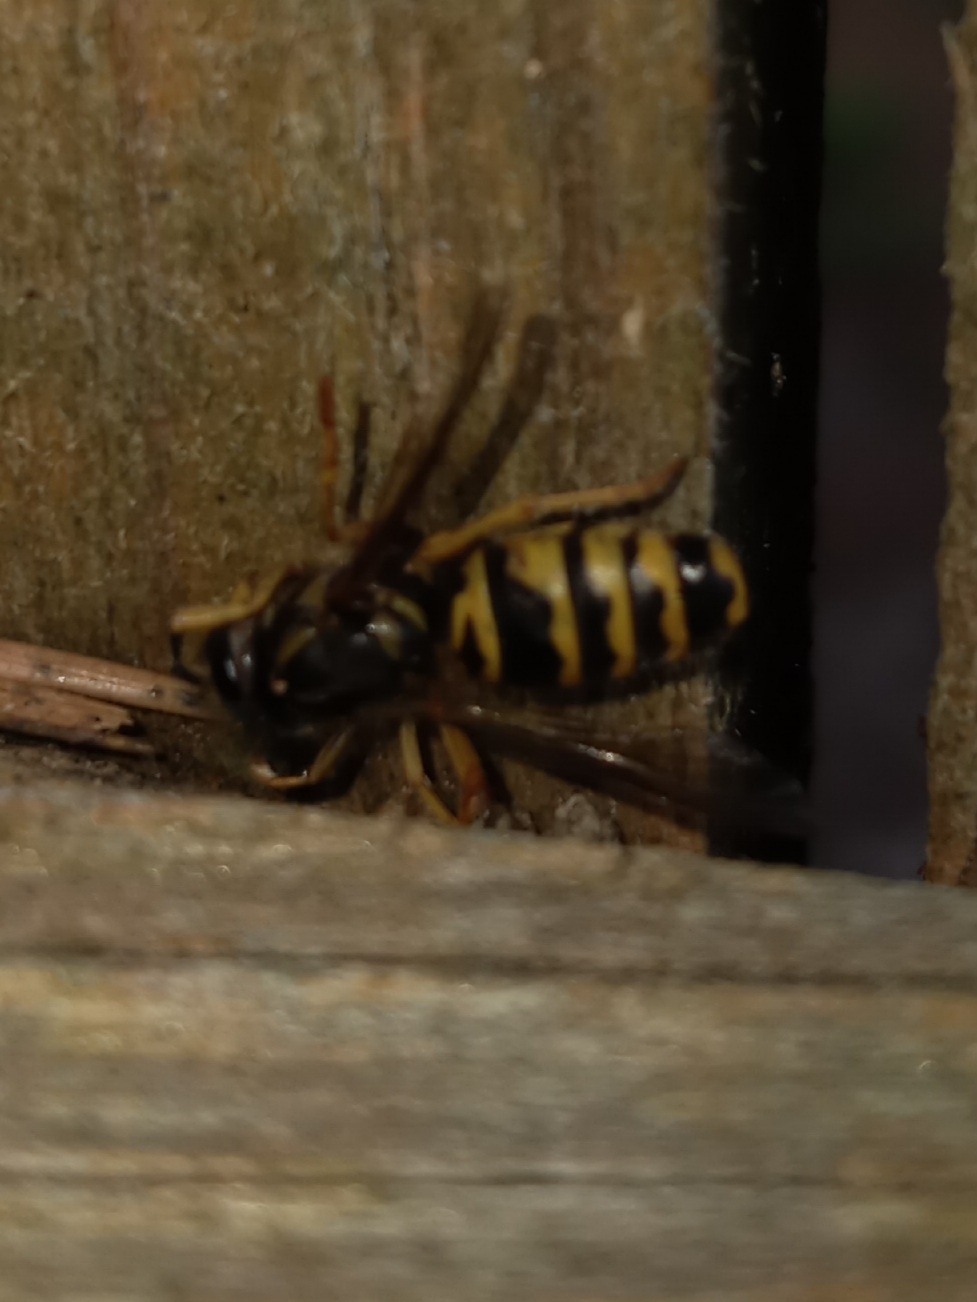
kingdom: Animalia
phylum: Arthropoda
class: Insecta
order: Hymenoptera
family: Vespidae
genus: Vespula
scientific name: Vespula maculifrons
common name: Eastern yellowjacket
